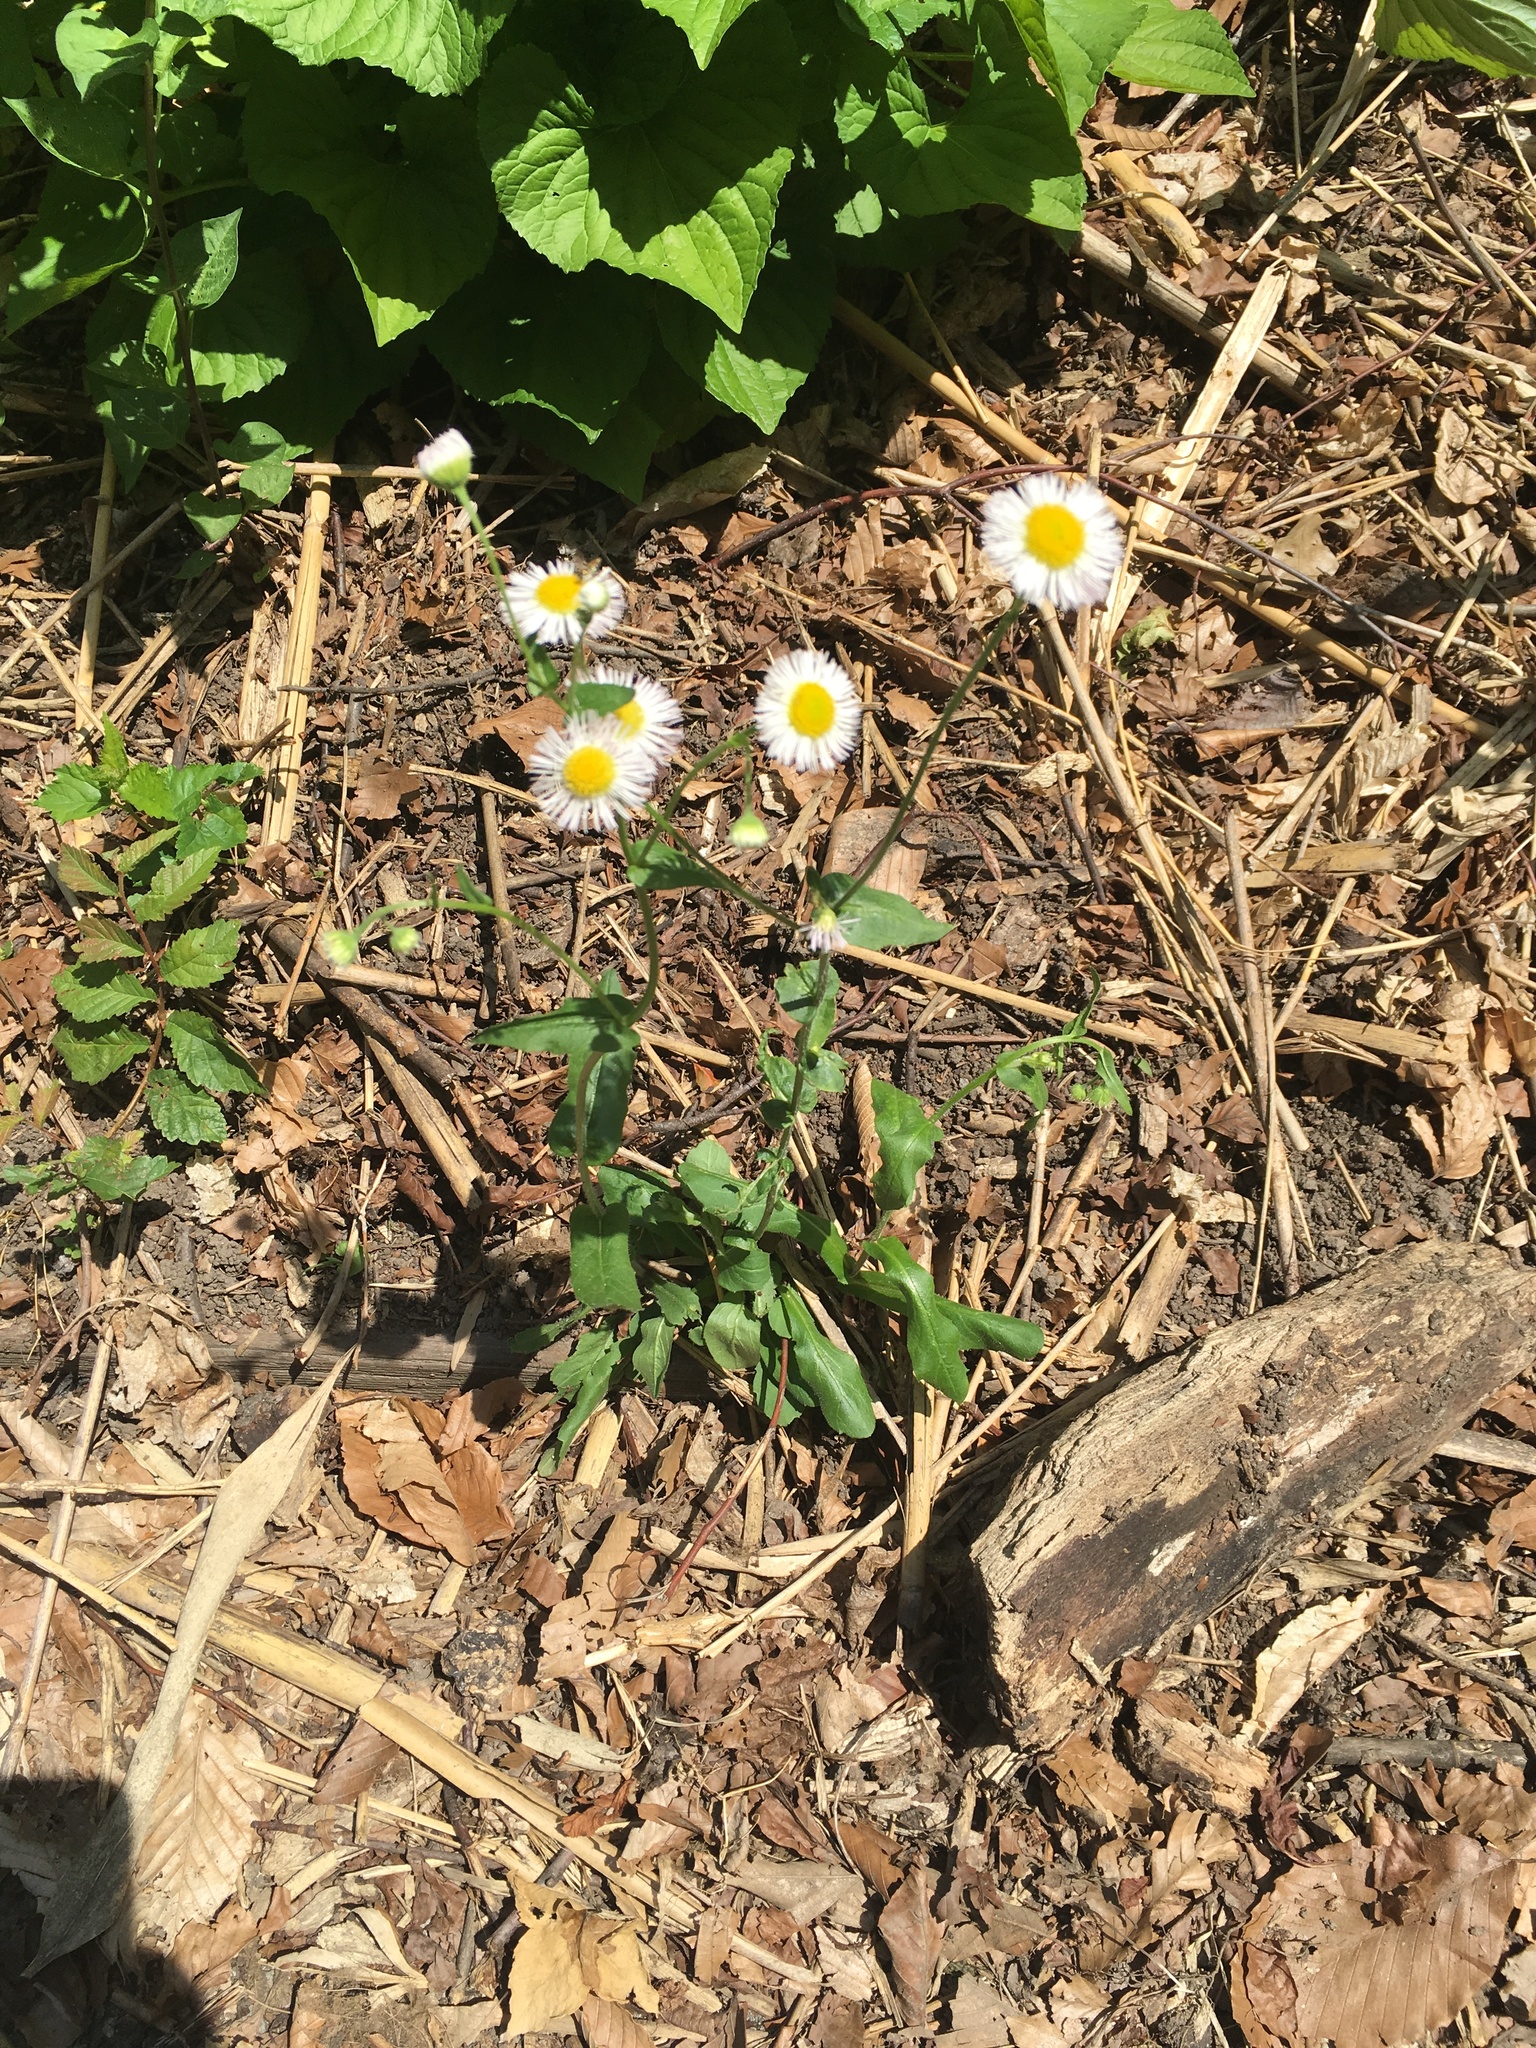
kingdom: Plantae
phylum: Tracheophyta
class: Magnoliopsida
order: Asterales
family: Asteraceae
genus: Erigeron
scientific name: Erigeron philadelphicus
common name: Robin's-plantain
